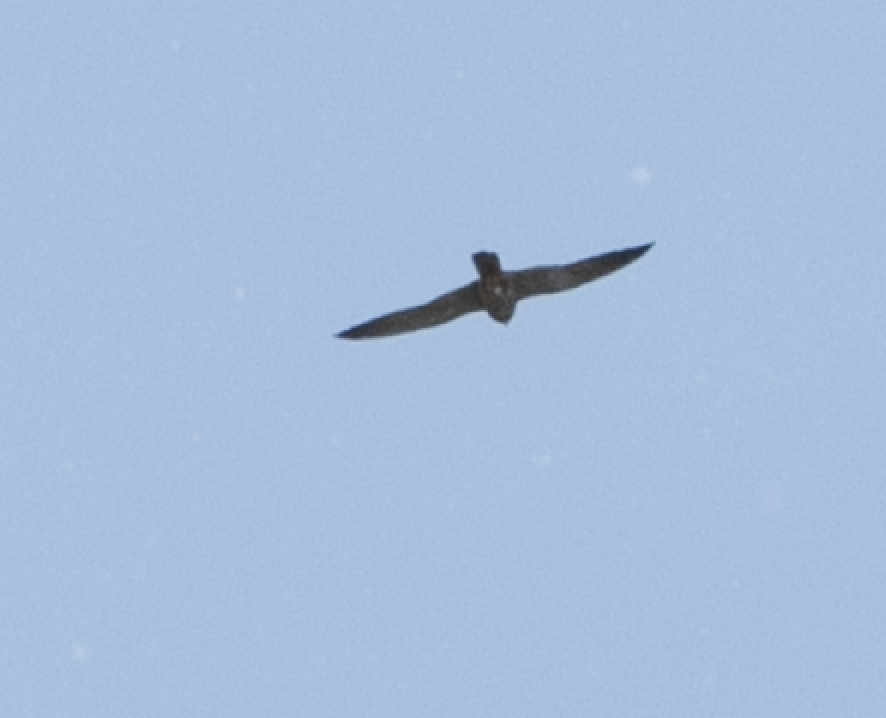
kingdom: Animalia
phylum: Chordata
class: Aves
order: Falconiformes
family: Falconidae
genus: Falco
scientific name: Falco vespertinus
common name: Red-footed falcon
